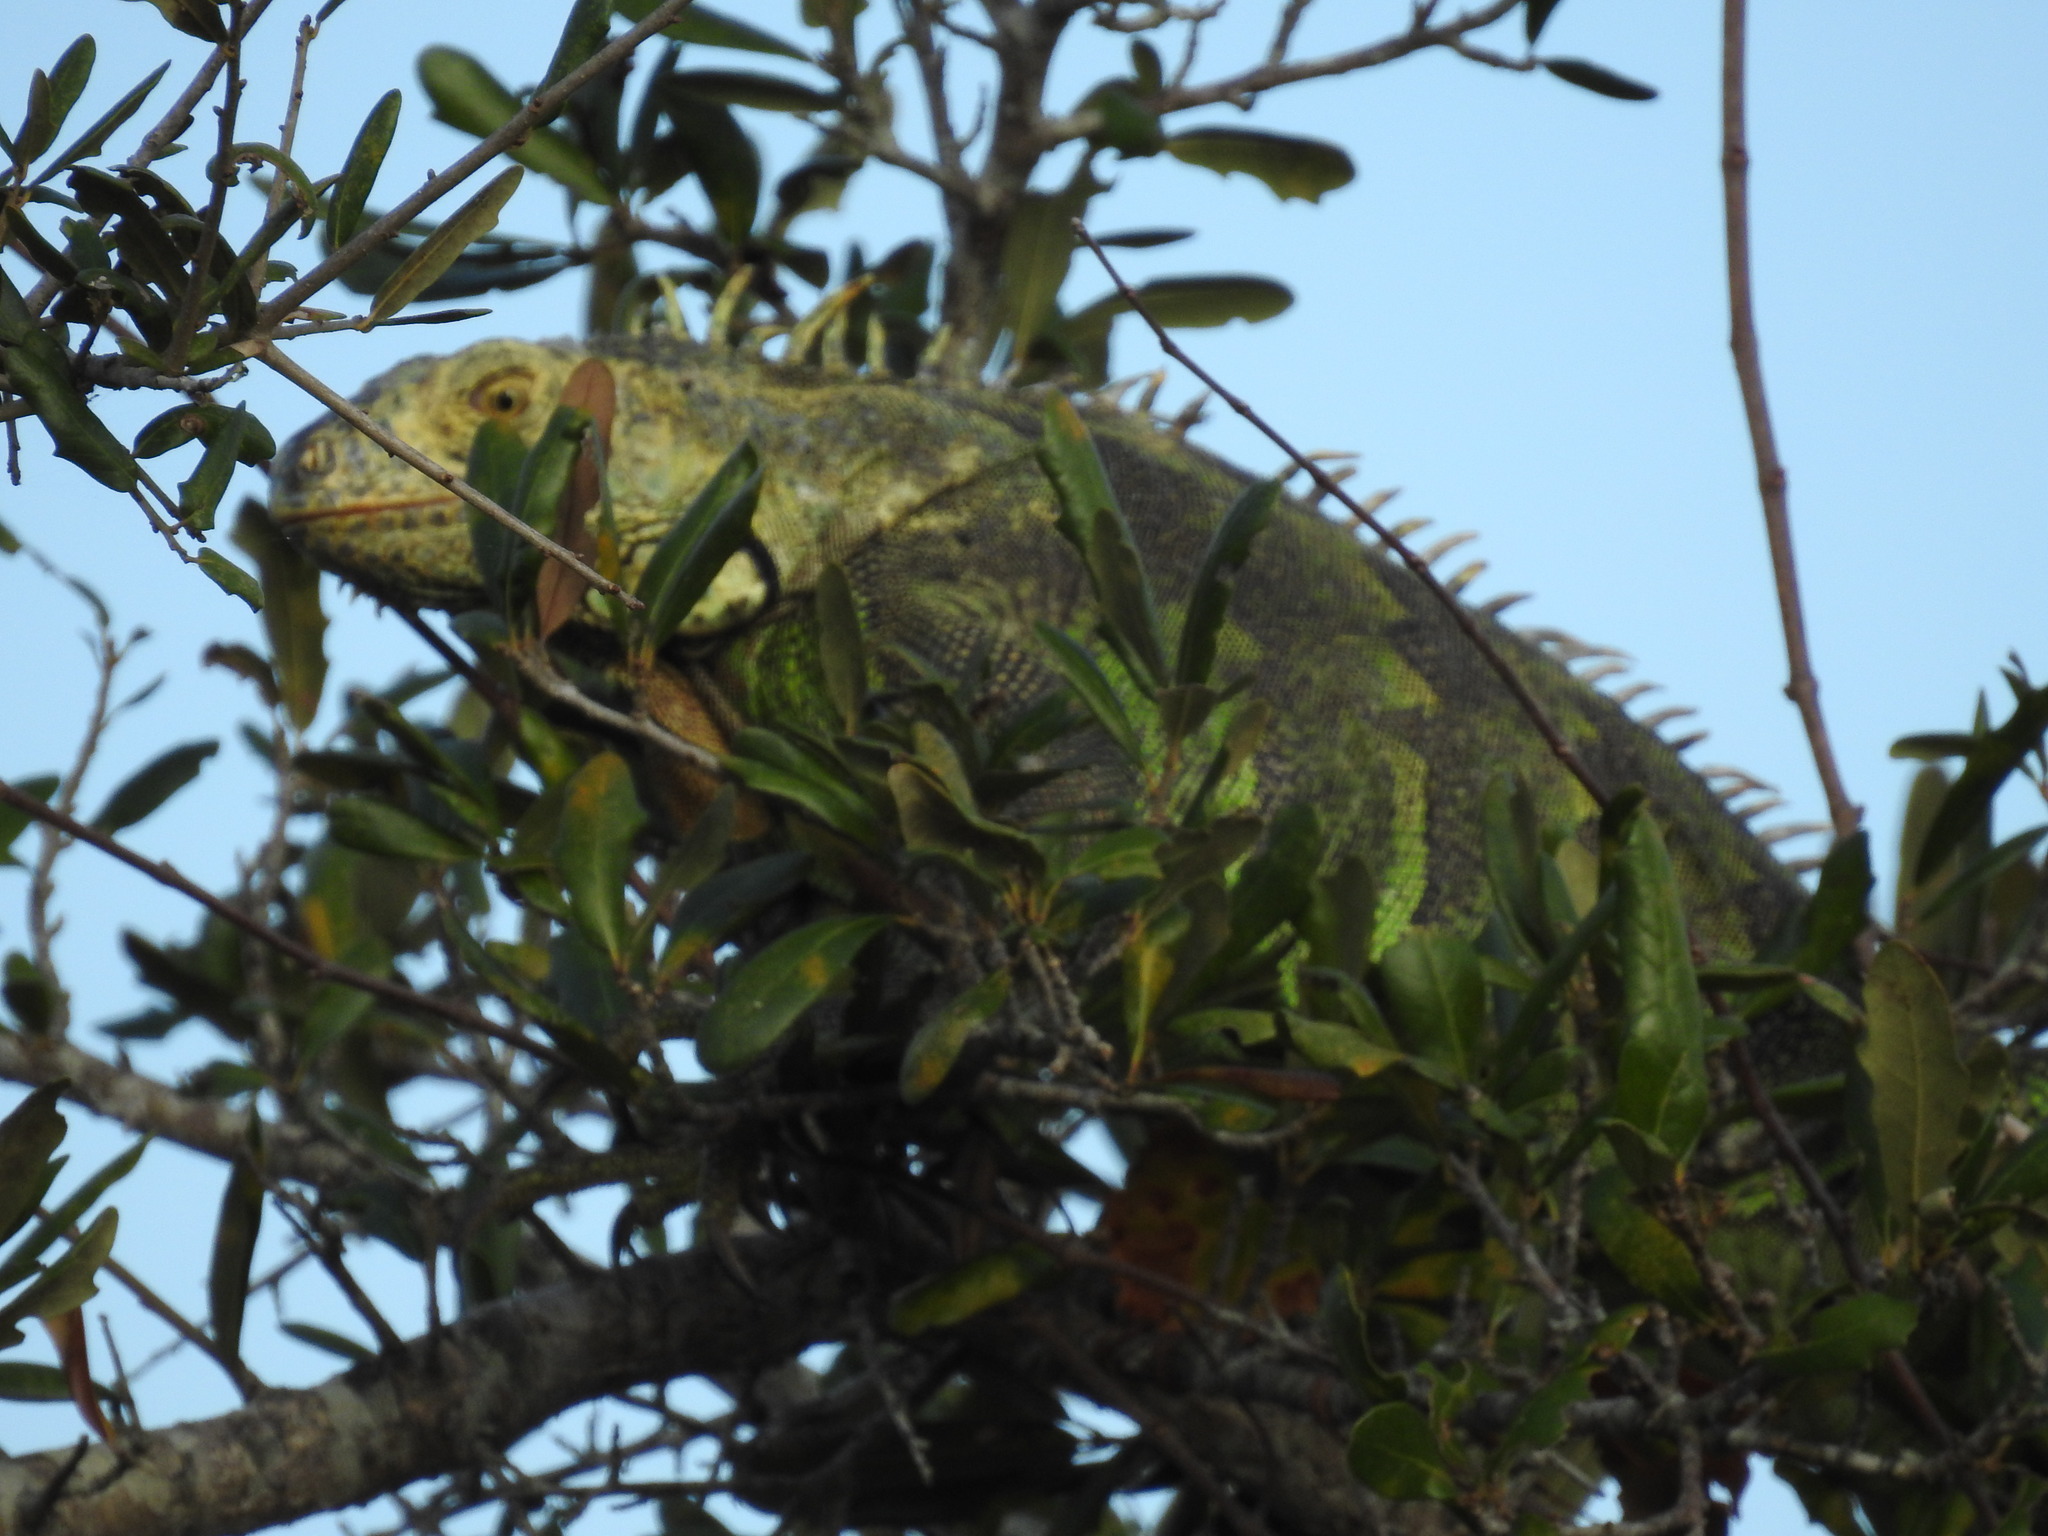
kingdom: Animalia
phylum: Chordata
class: Squamata
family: Iguanidae
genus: Iguana
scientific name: Iguana iguana
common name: Green iguana
